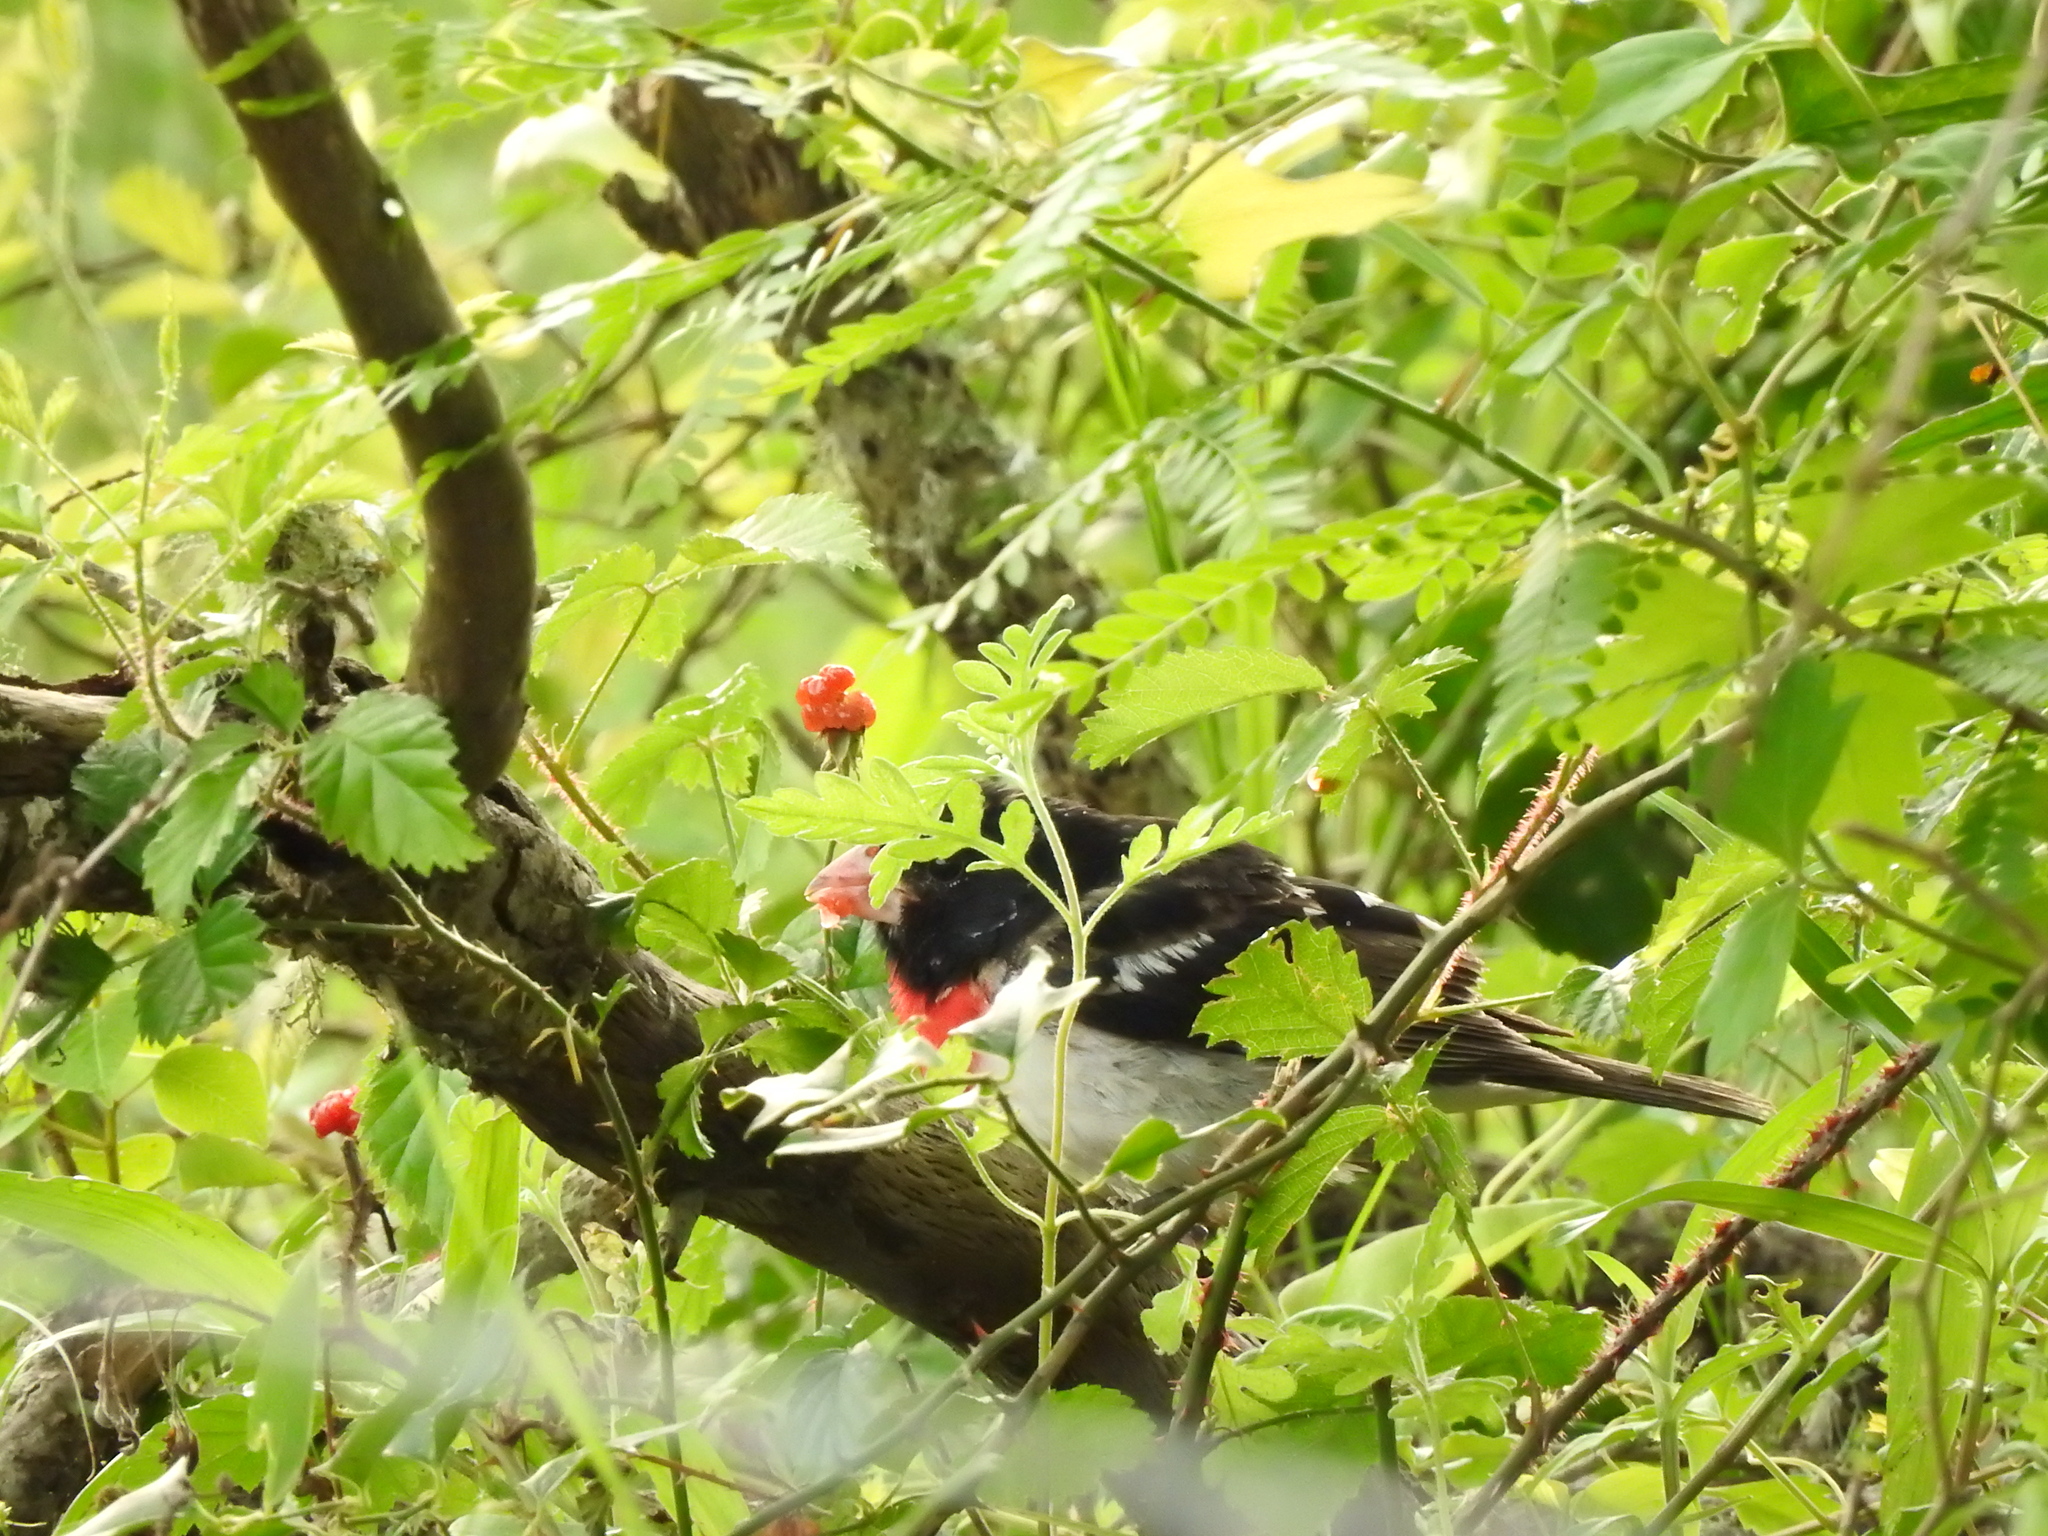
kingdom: Animalia
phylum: Chordata
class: Aves
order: Passeriformes
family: Cardinalidae
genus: Pheucticus
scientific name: Pheucticus ludovicianus
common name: Rose-breasted grosbeak
